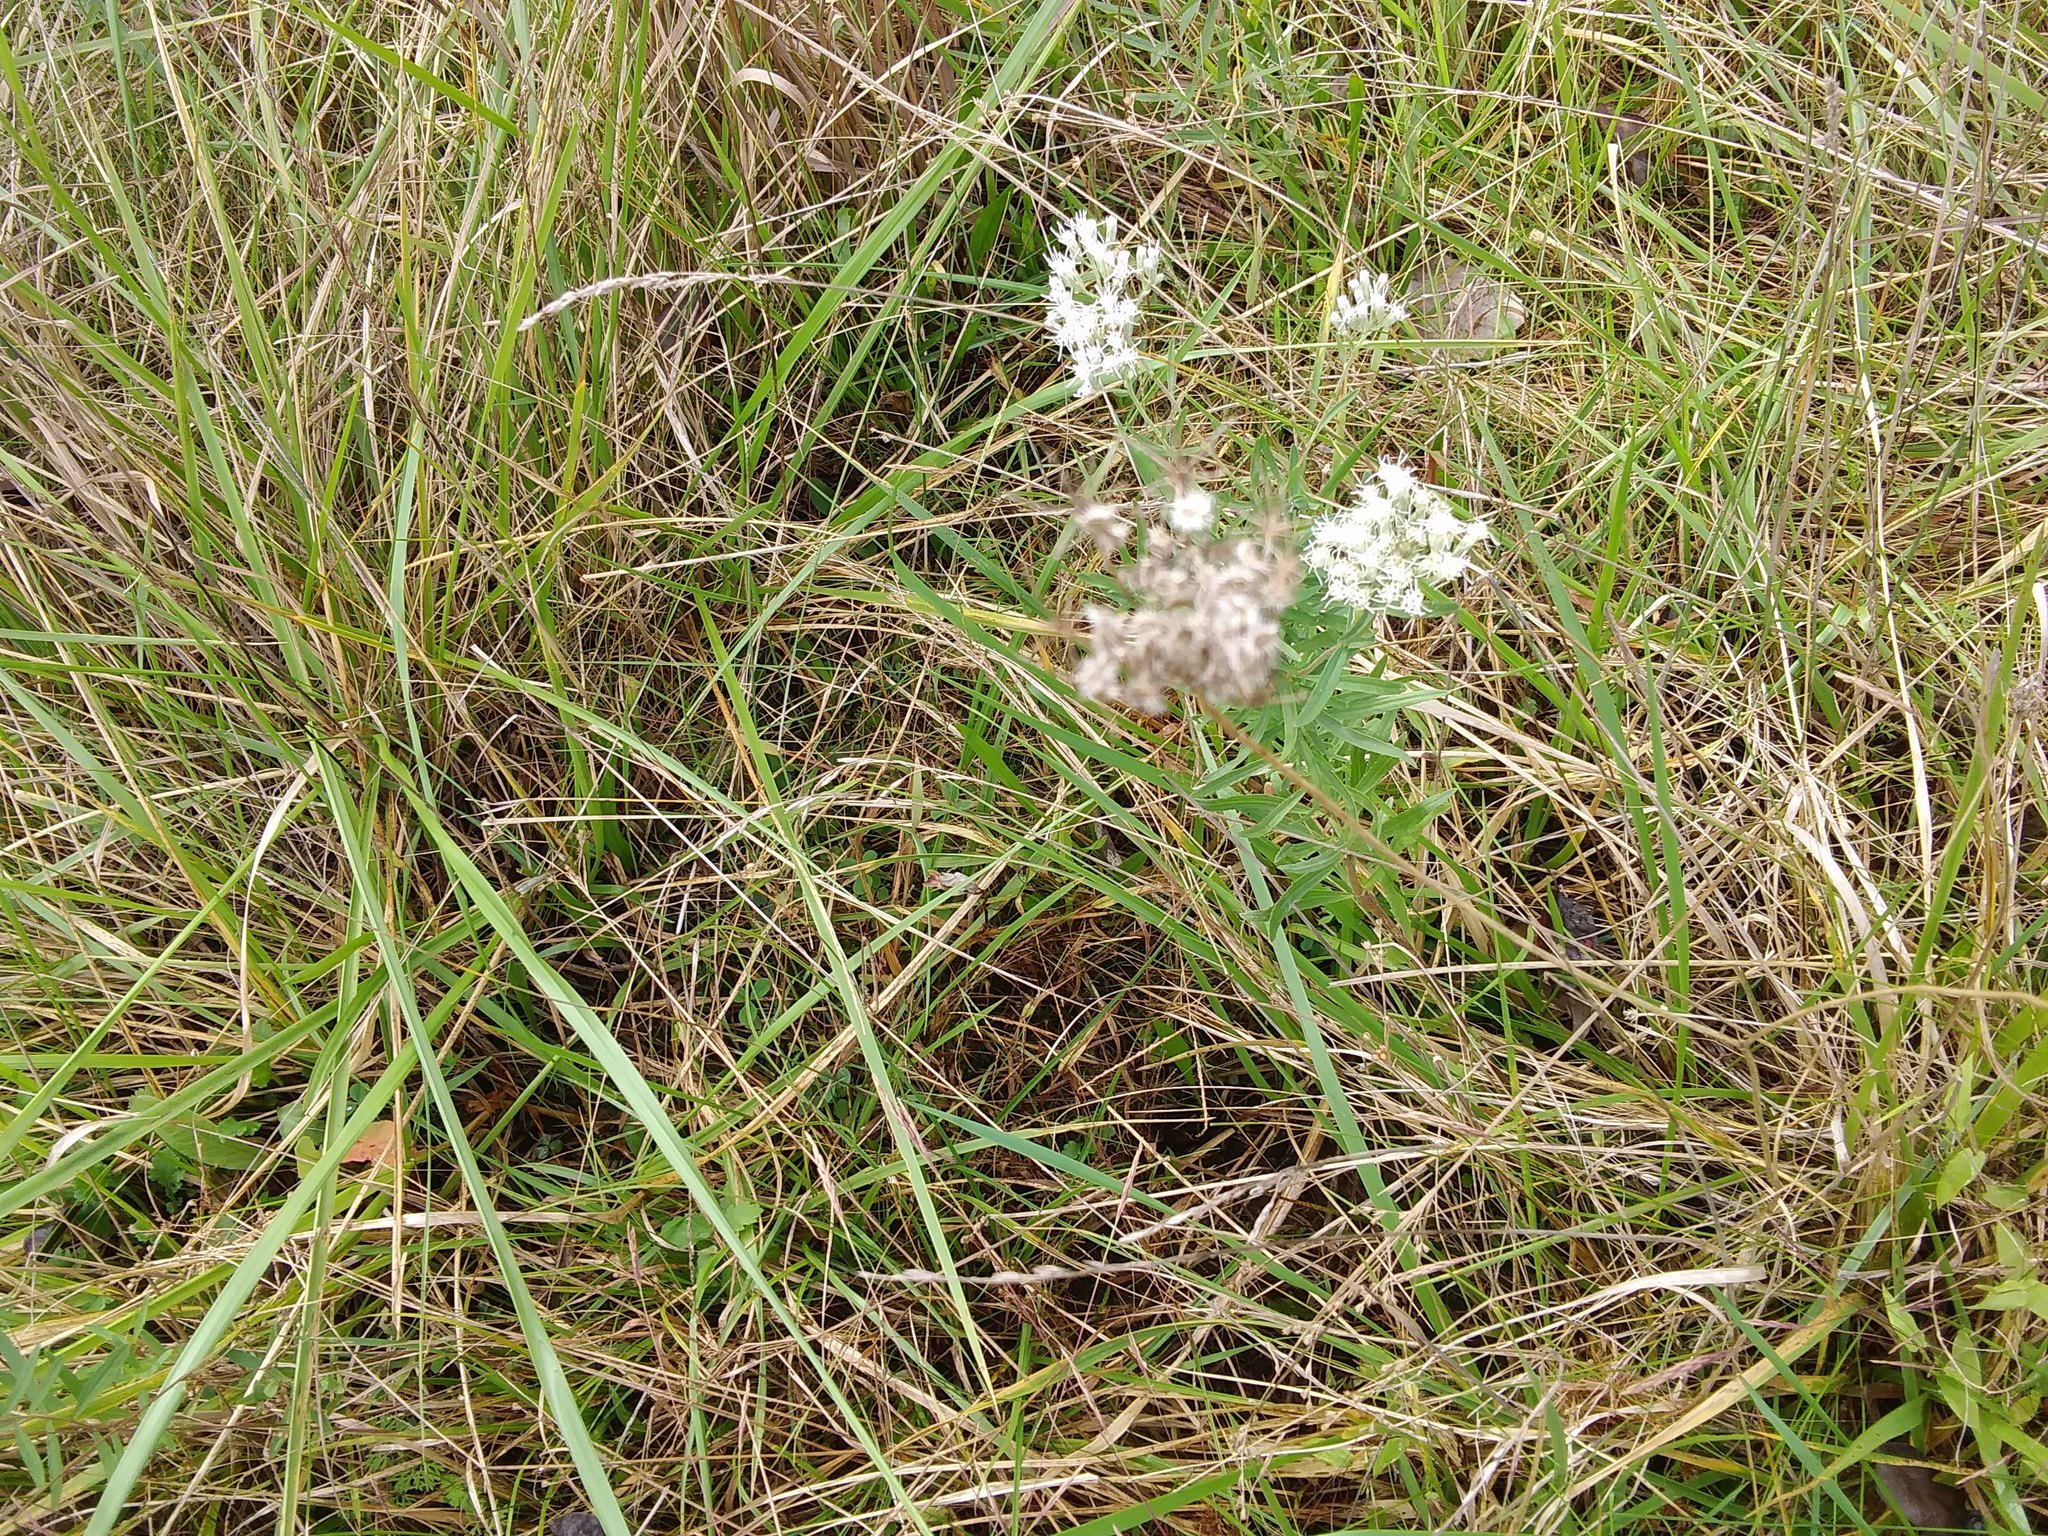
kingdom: Plantae
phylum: Tracheophyta
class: Magnoliopsida
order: Asterales
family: Asteraceae
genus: Ageratina
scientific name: Ageratina altissima
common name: White snakeroot
